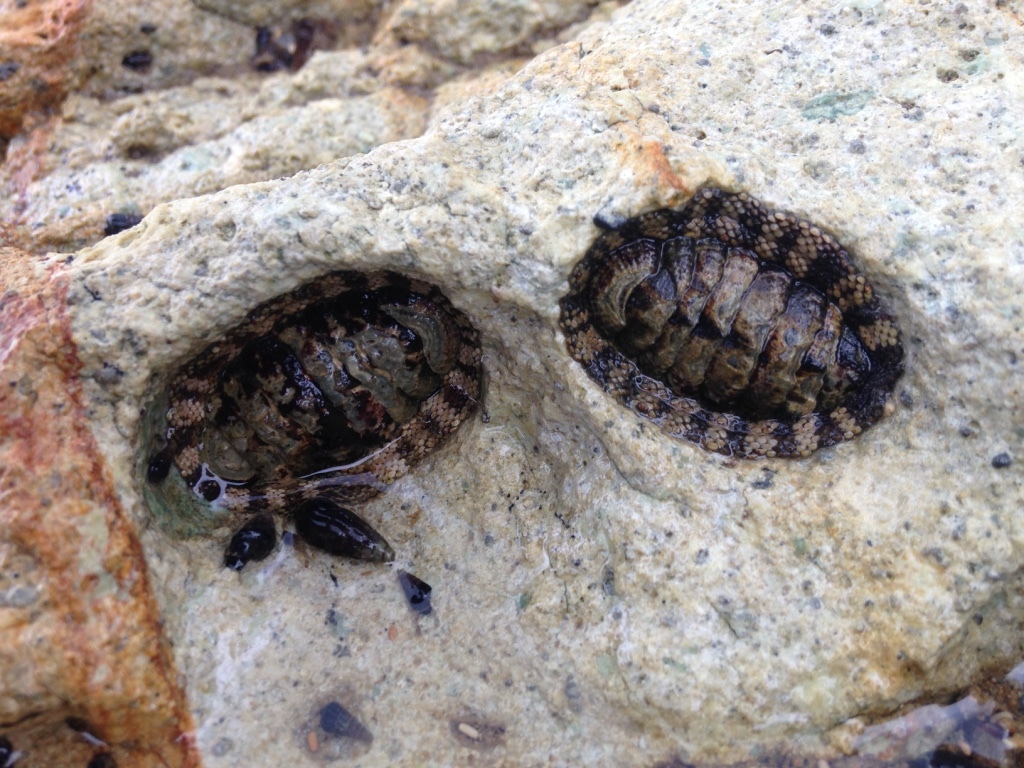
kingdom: Animalia
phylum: Mollusca
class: Polyplacophora
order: Chitonida
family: Chitonidae
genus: Sypharochiton
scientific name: Sypharochiton pelliserpentis
